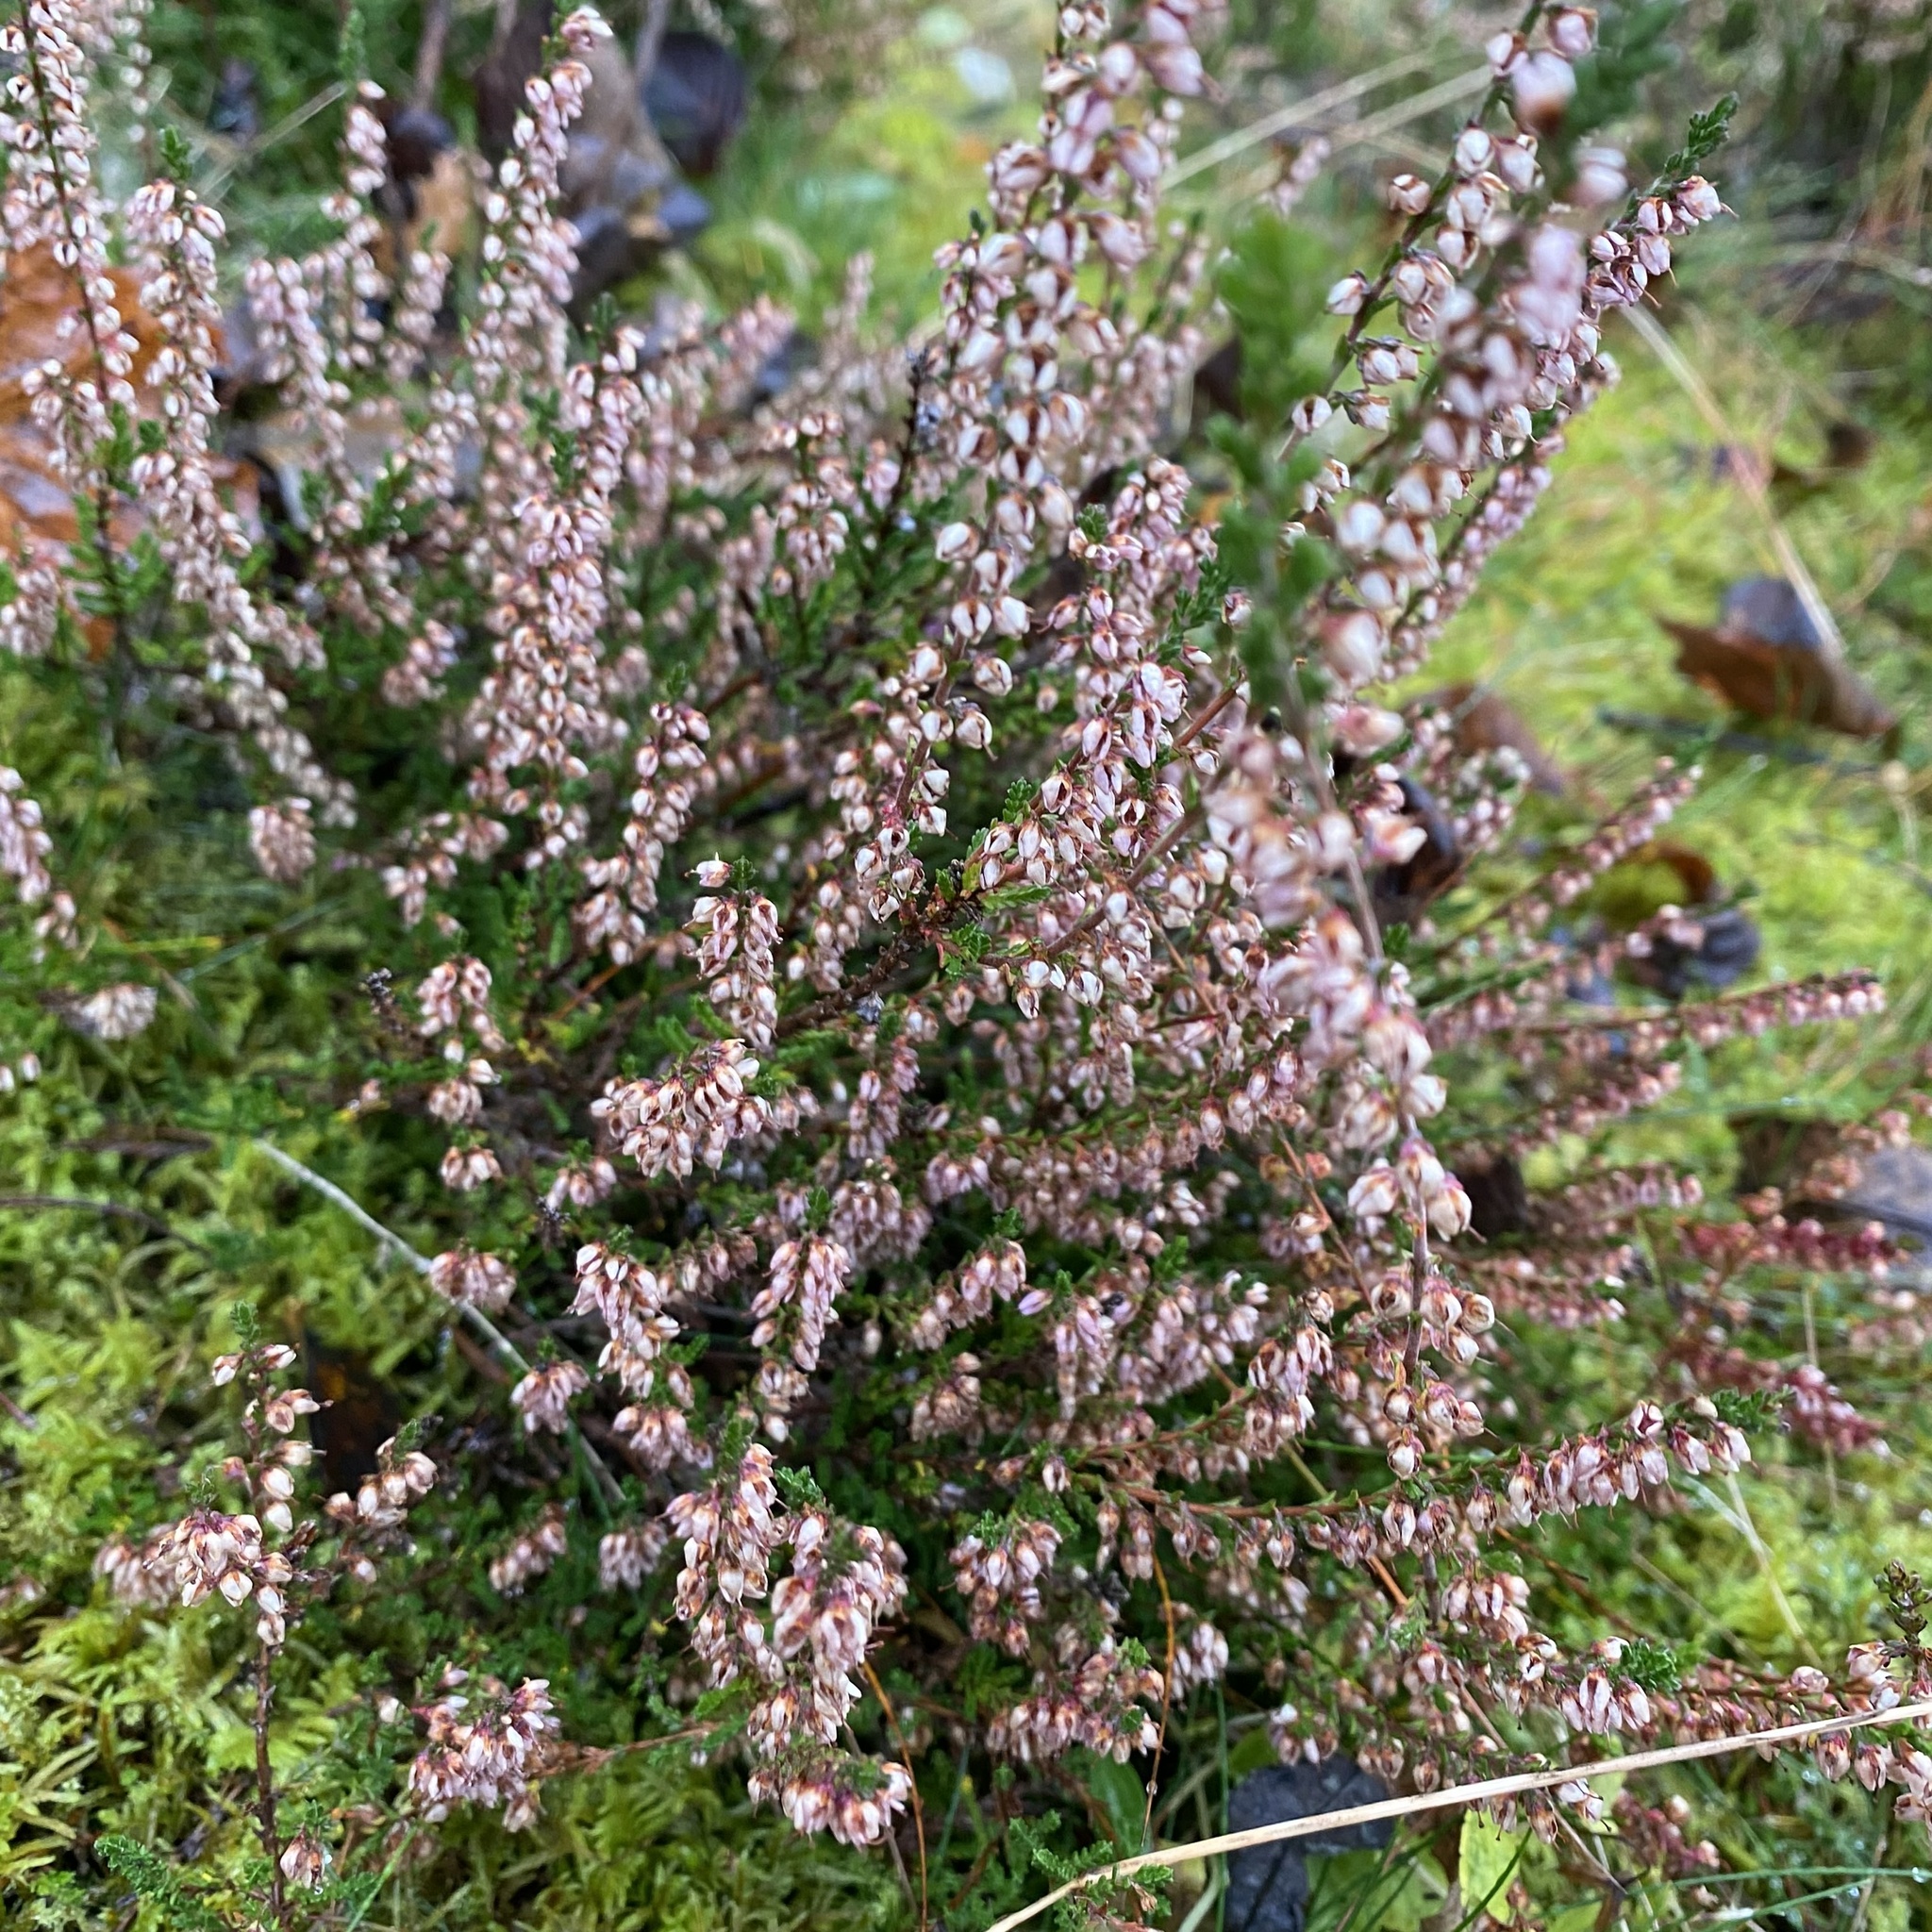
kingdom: Plantae
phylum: Tracheophyta
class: Magnoliopsida
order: Ericales
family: Ericaceae
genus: Calluna
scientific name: Calluna vulgaris
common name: Heather
